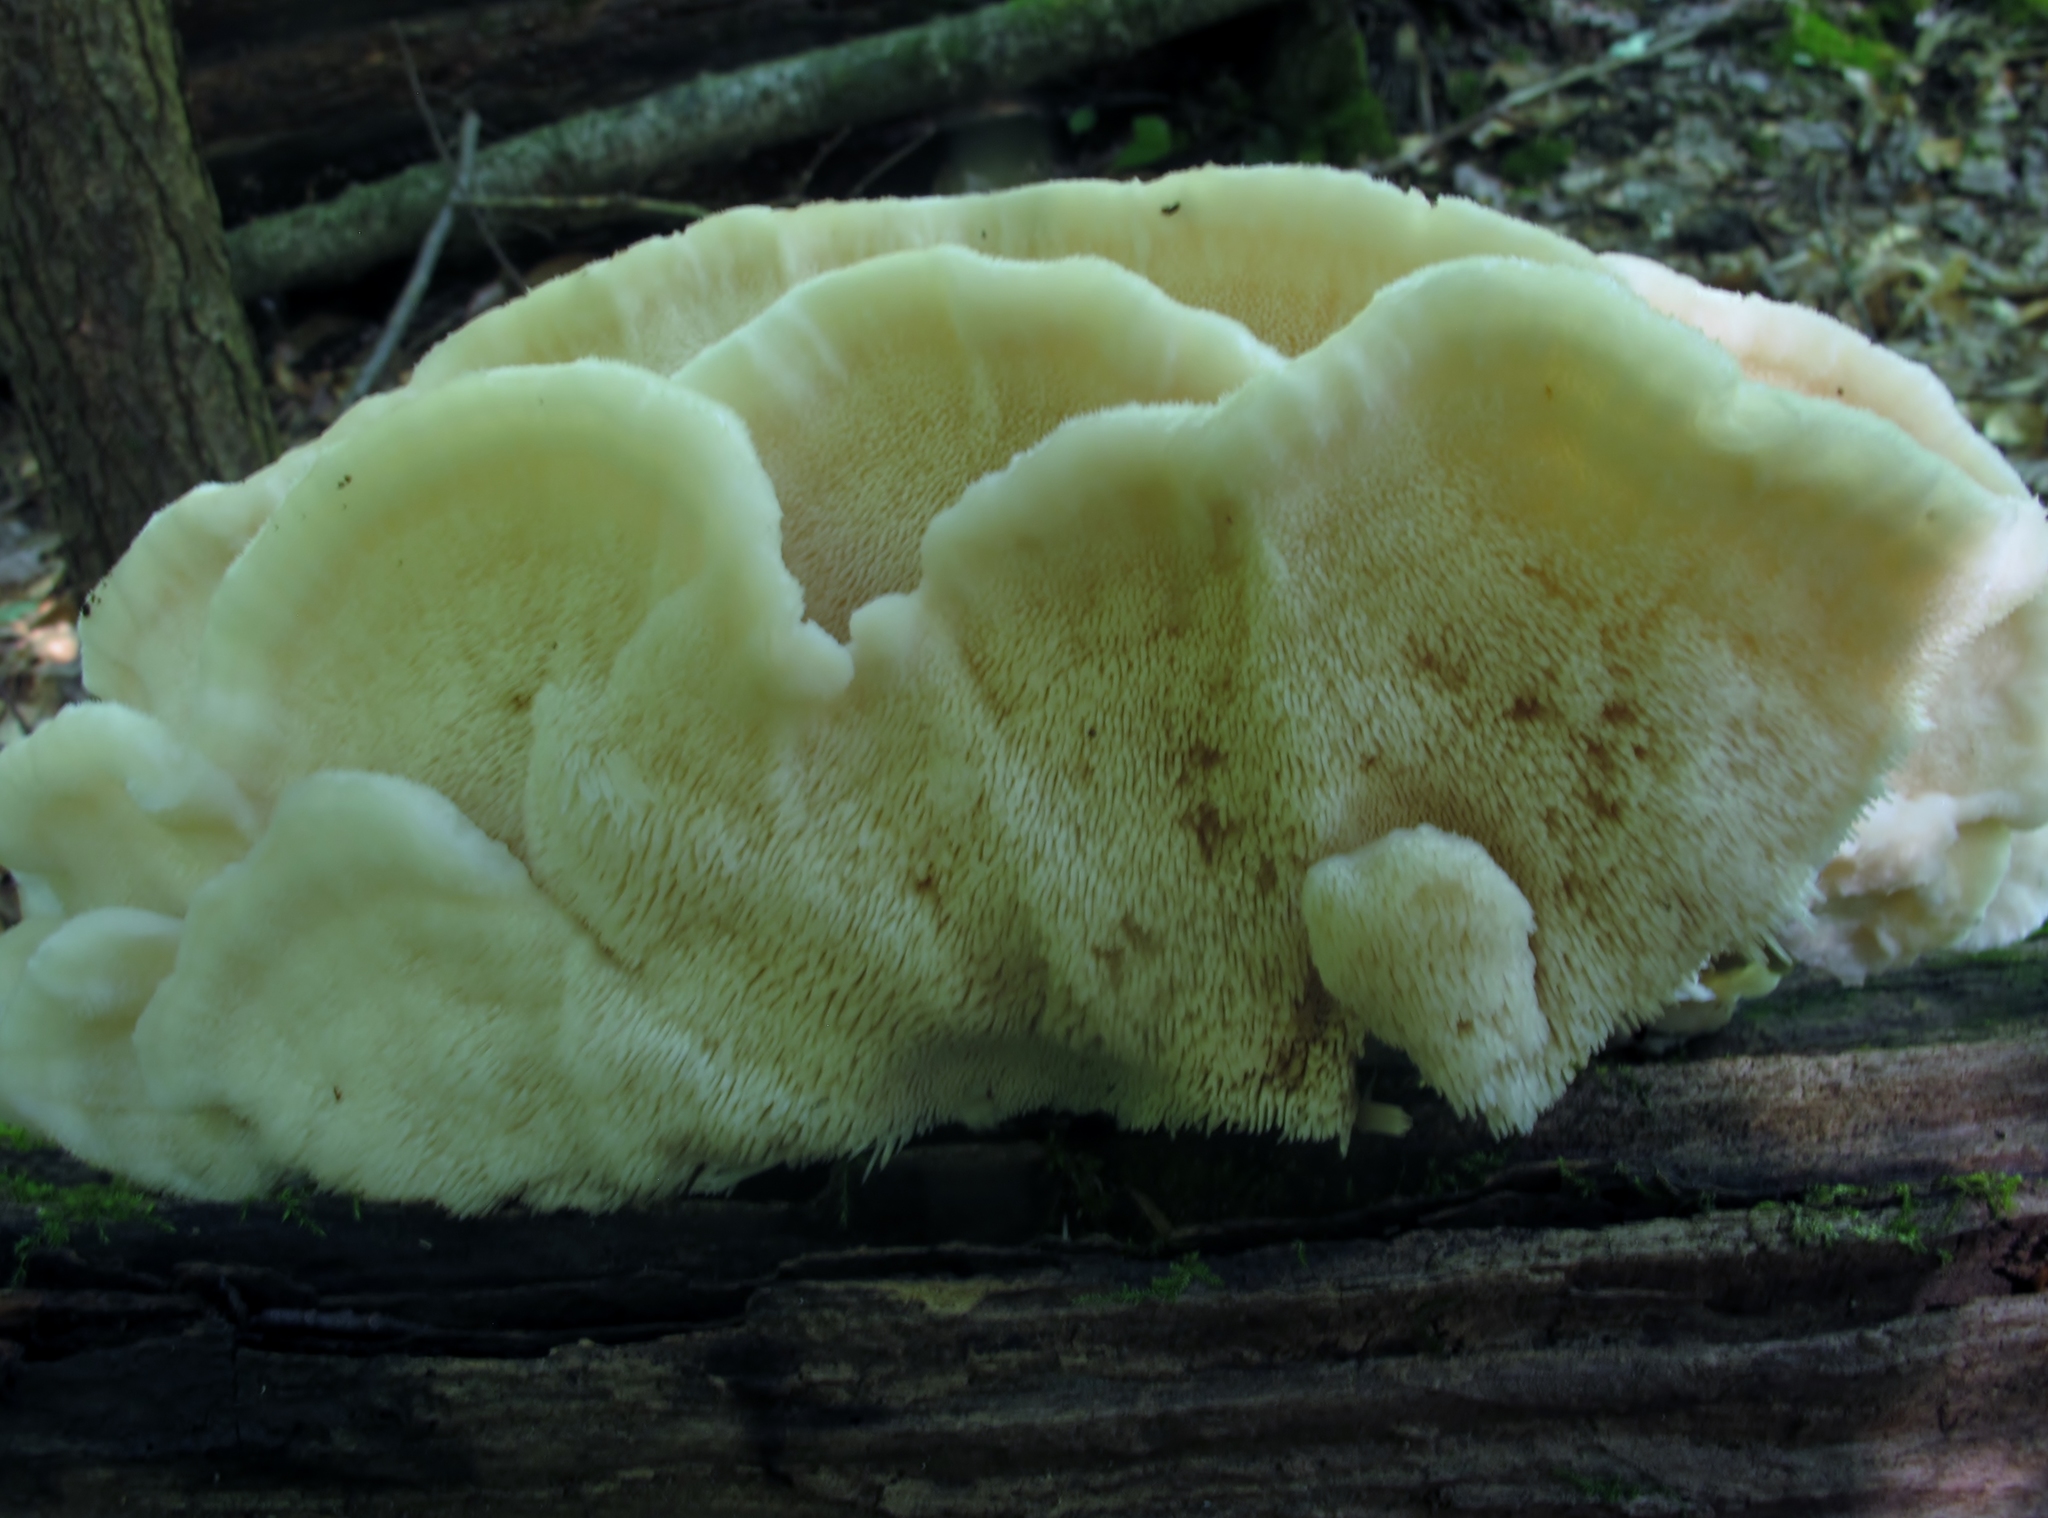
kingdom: Fungi
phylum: Basidiomycota
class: Agaricomycetes
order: Polyporales
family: Meruliaceae
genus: Climacodon
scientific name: Climacodon septentrionalis
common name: Northern tooth
